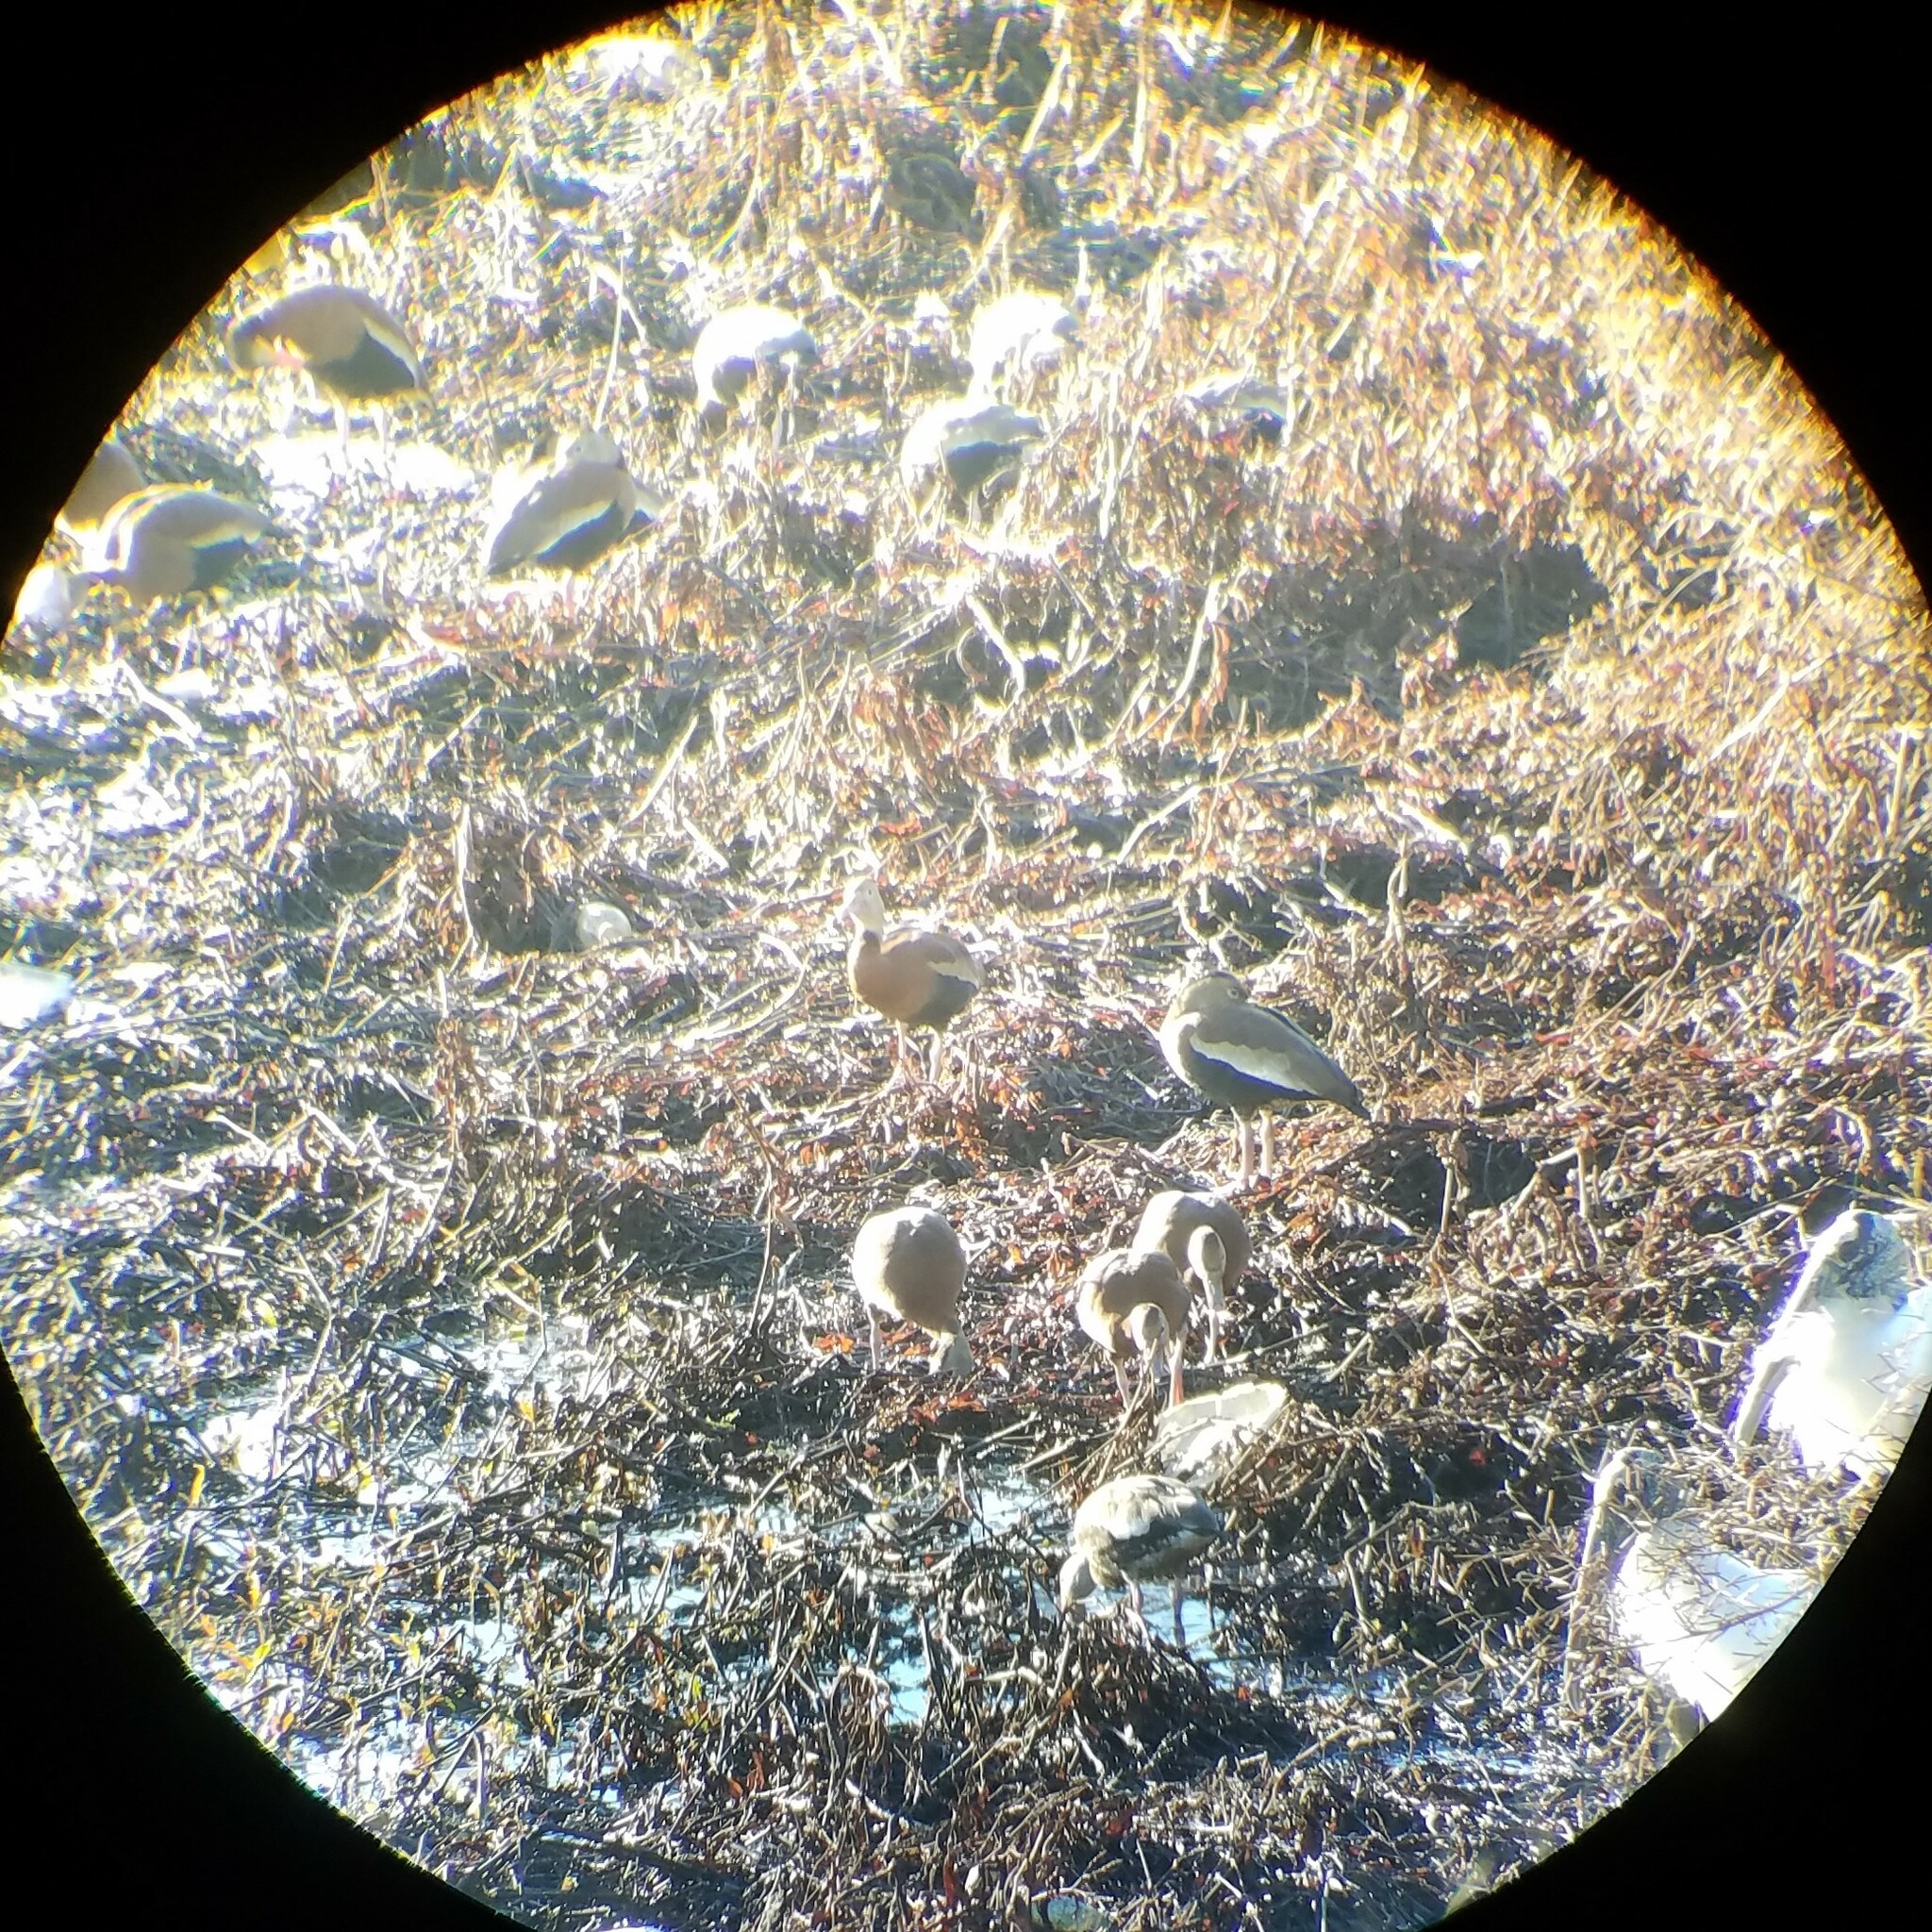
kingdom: Animalia
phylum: Chordata
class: Aves
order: Anseriformes
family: Anatidae
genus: Dendrocygna
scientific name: Dendrocygna autumnalis
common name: Black-bellied whistling duck
